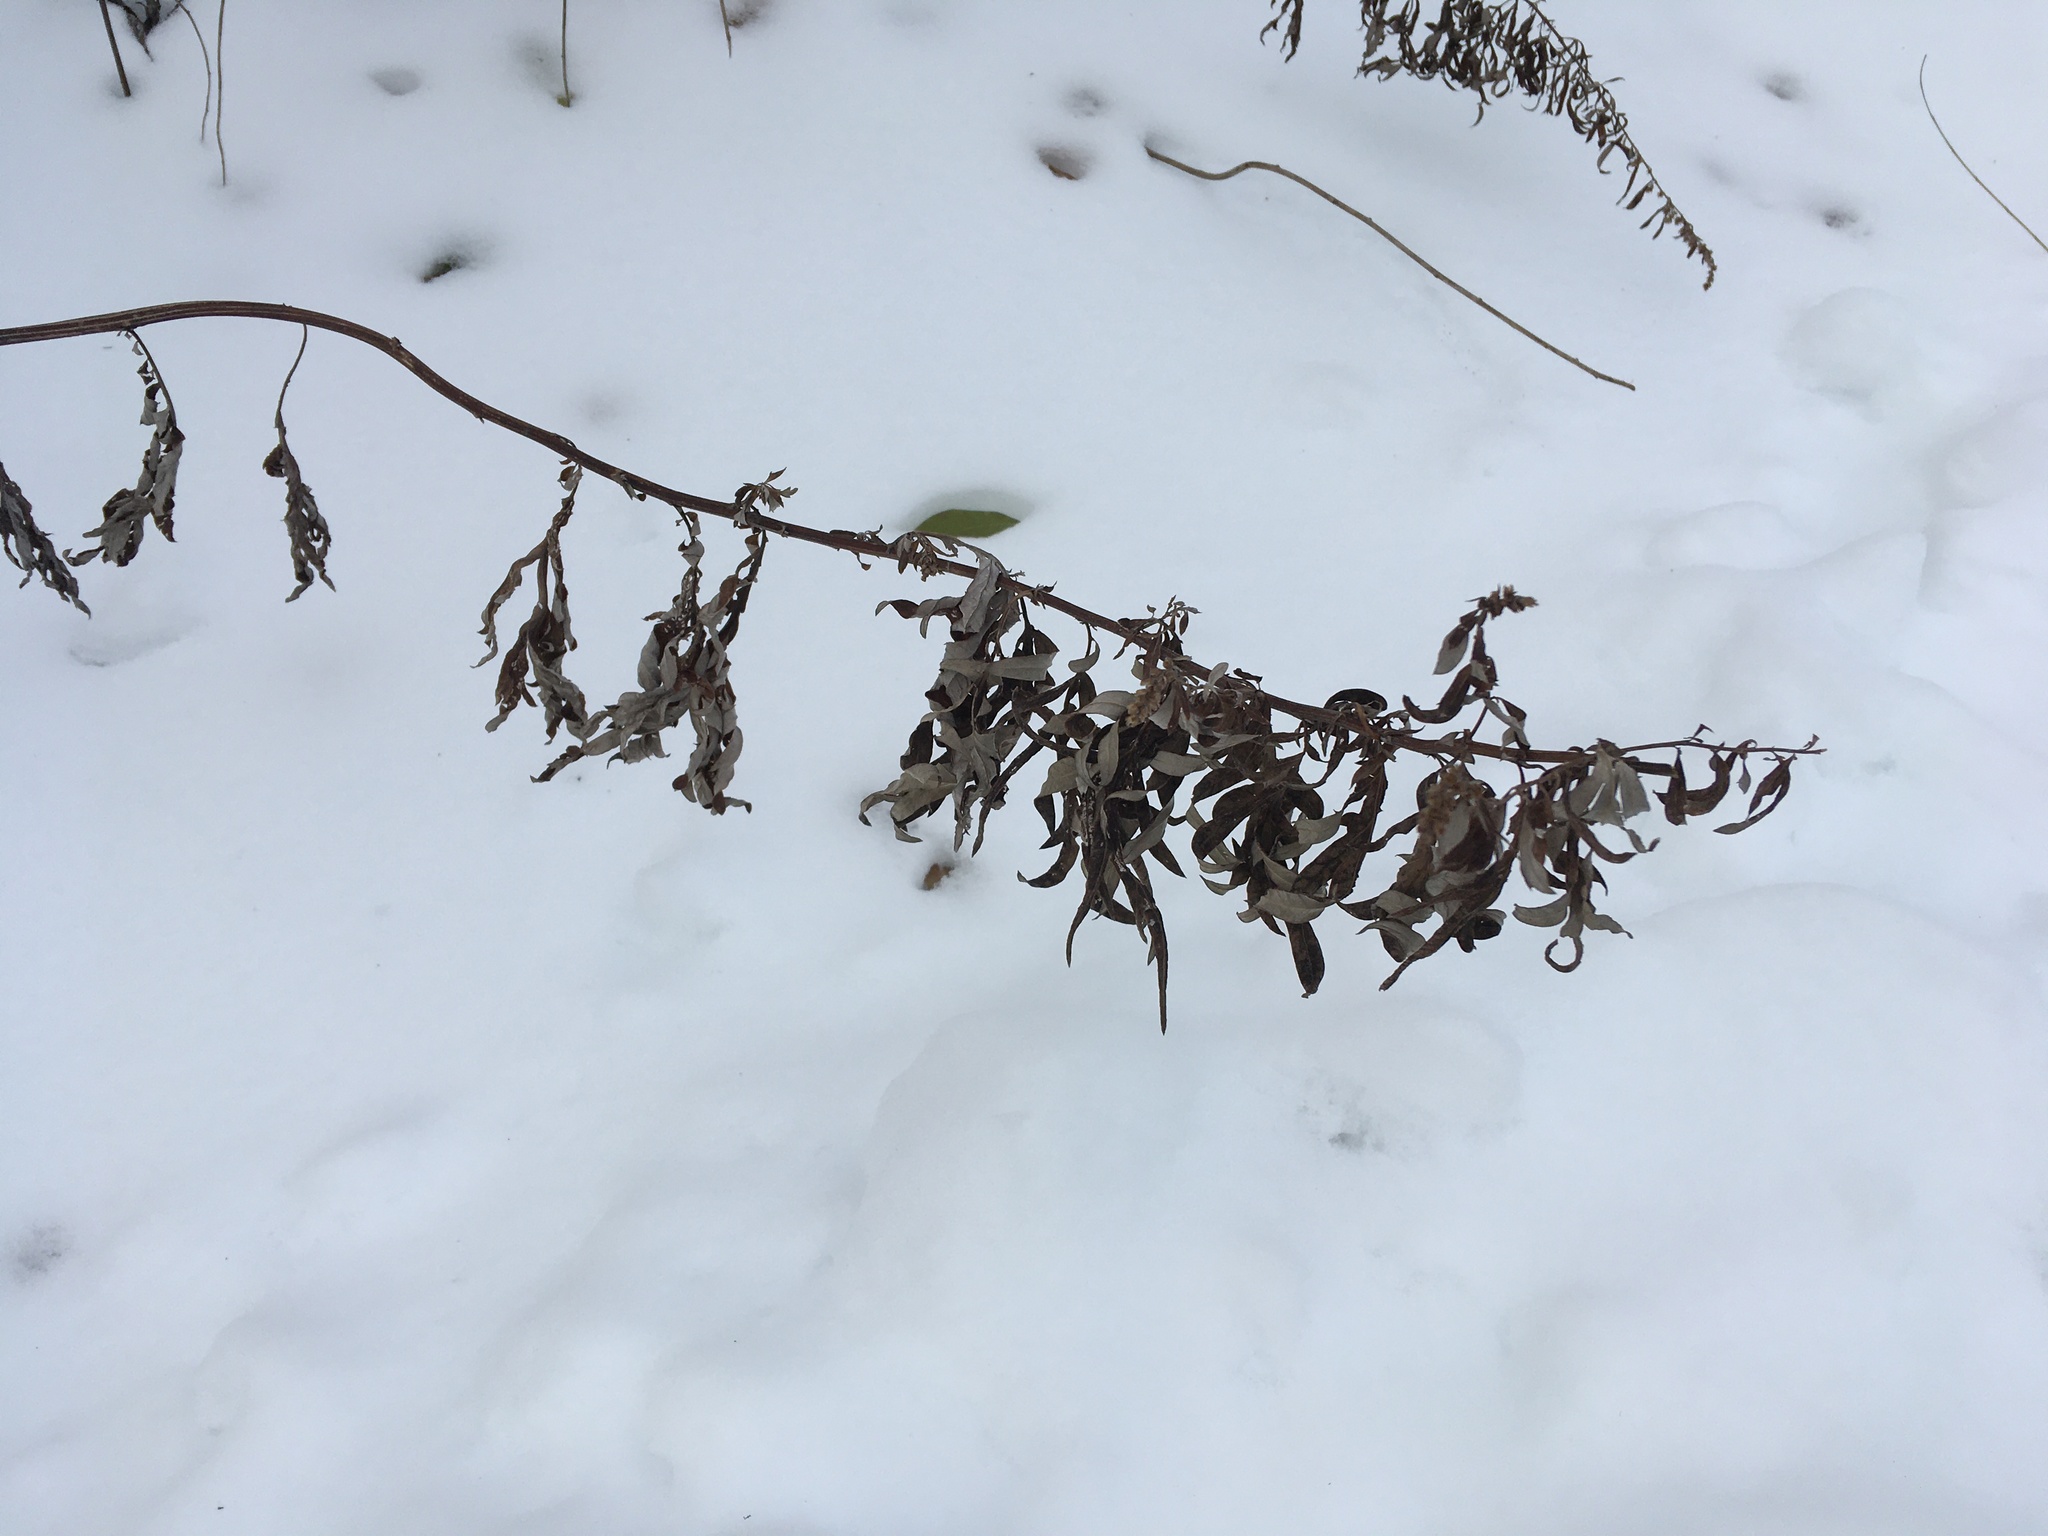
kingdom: Plantae
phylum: Tracheophyta
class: Magnoliopsida
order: Asterales
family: Asteraceae
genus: Artemisia
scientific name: Artemisia vulgaris
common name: Mugwort
